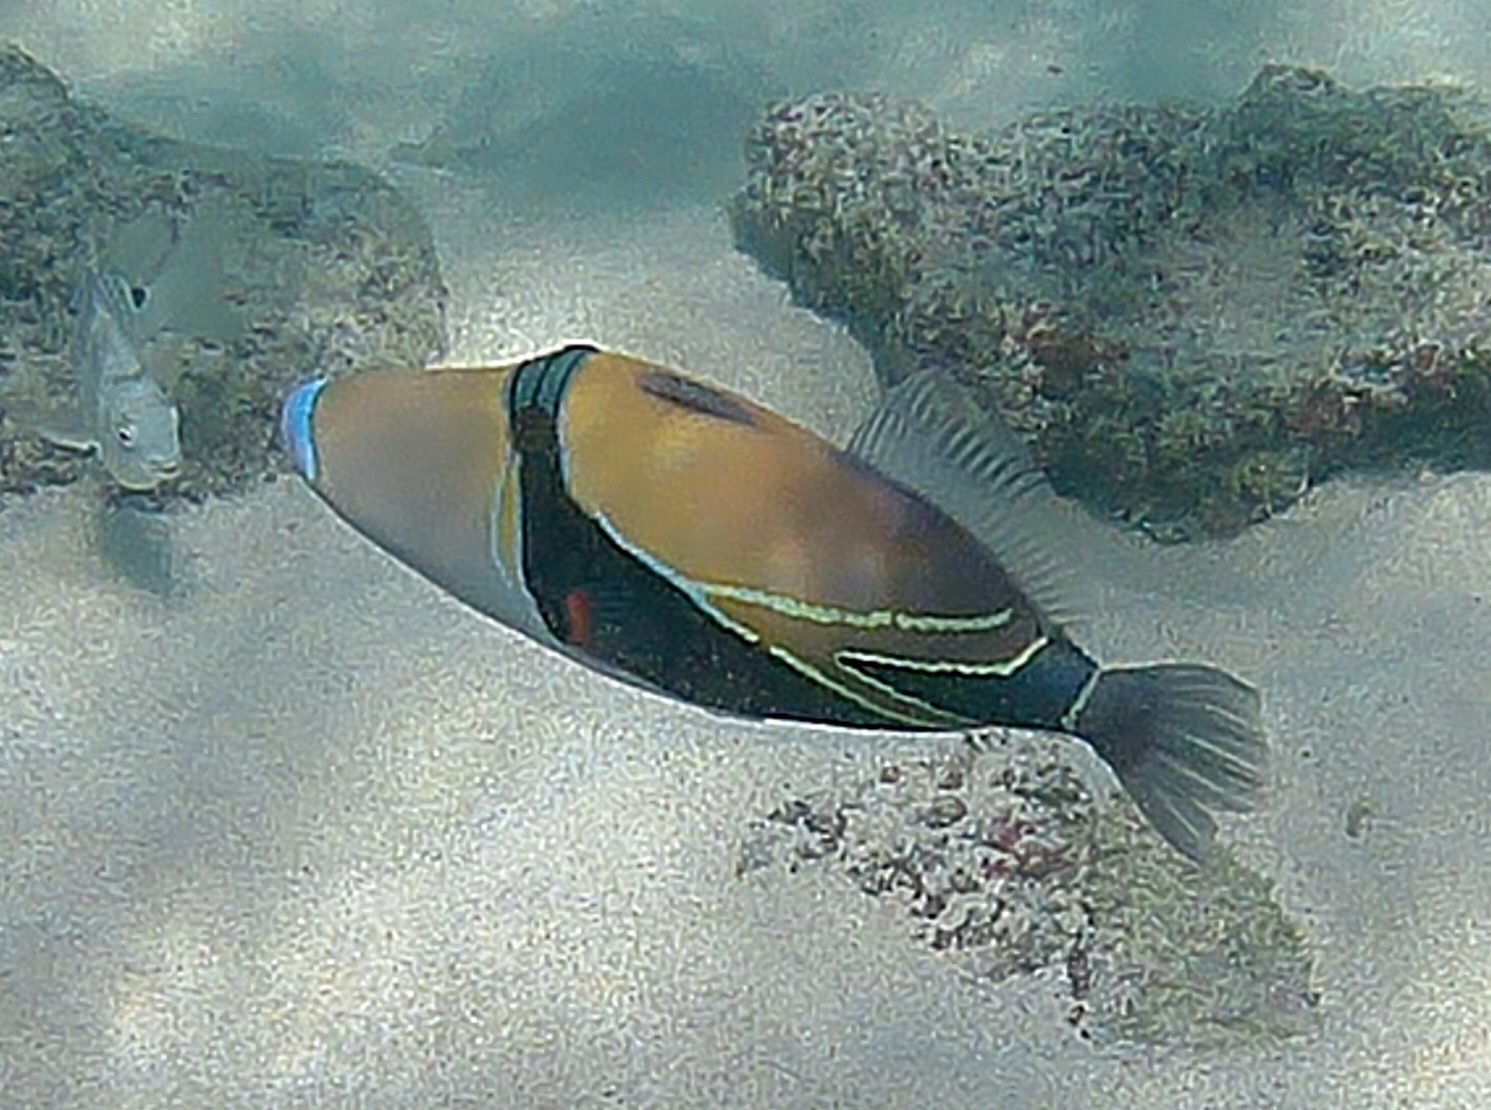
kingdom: Animalia
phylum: Chordata
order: Tetraodontiformes
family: Balistidae
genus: Rhinecanthus
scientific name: Rhinecanthus rectangulus
